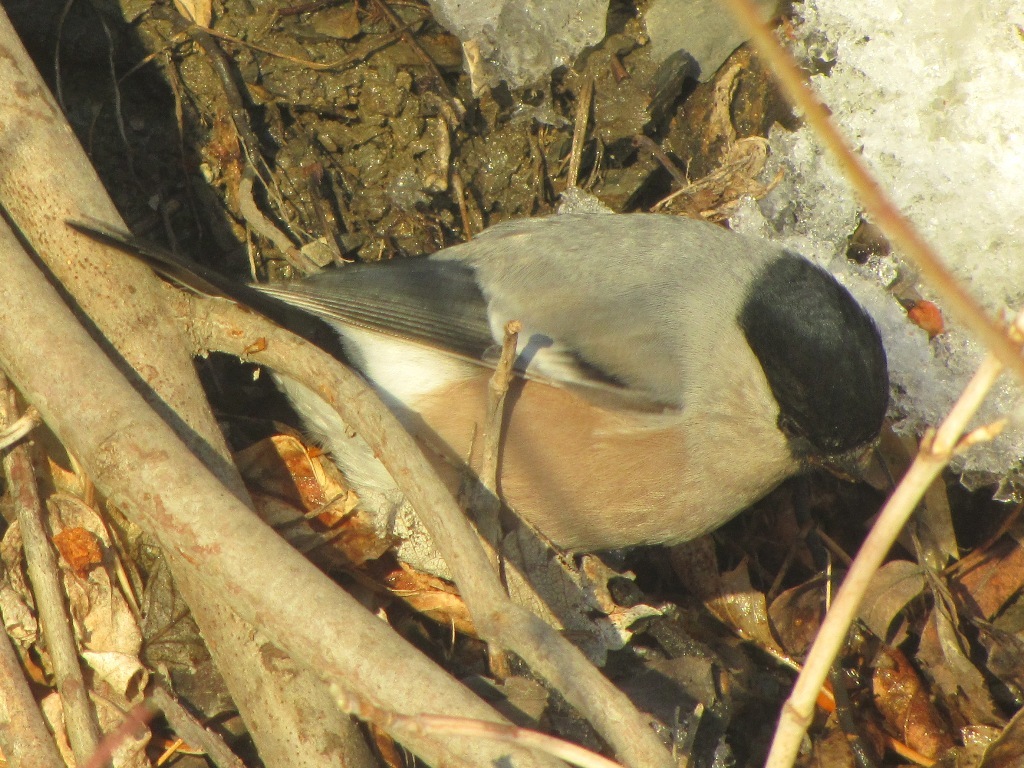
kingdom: Animalia
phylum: Chordata
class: Aves
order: Passeriformes
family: Fringillidae
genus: Pyrrhula
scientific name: Pyrrhula pyrrhula
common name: Eurasian bullfinch
